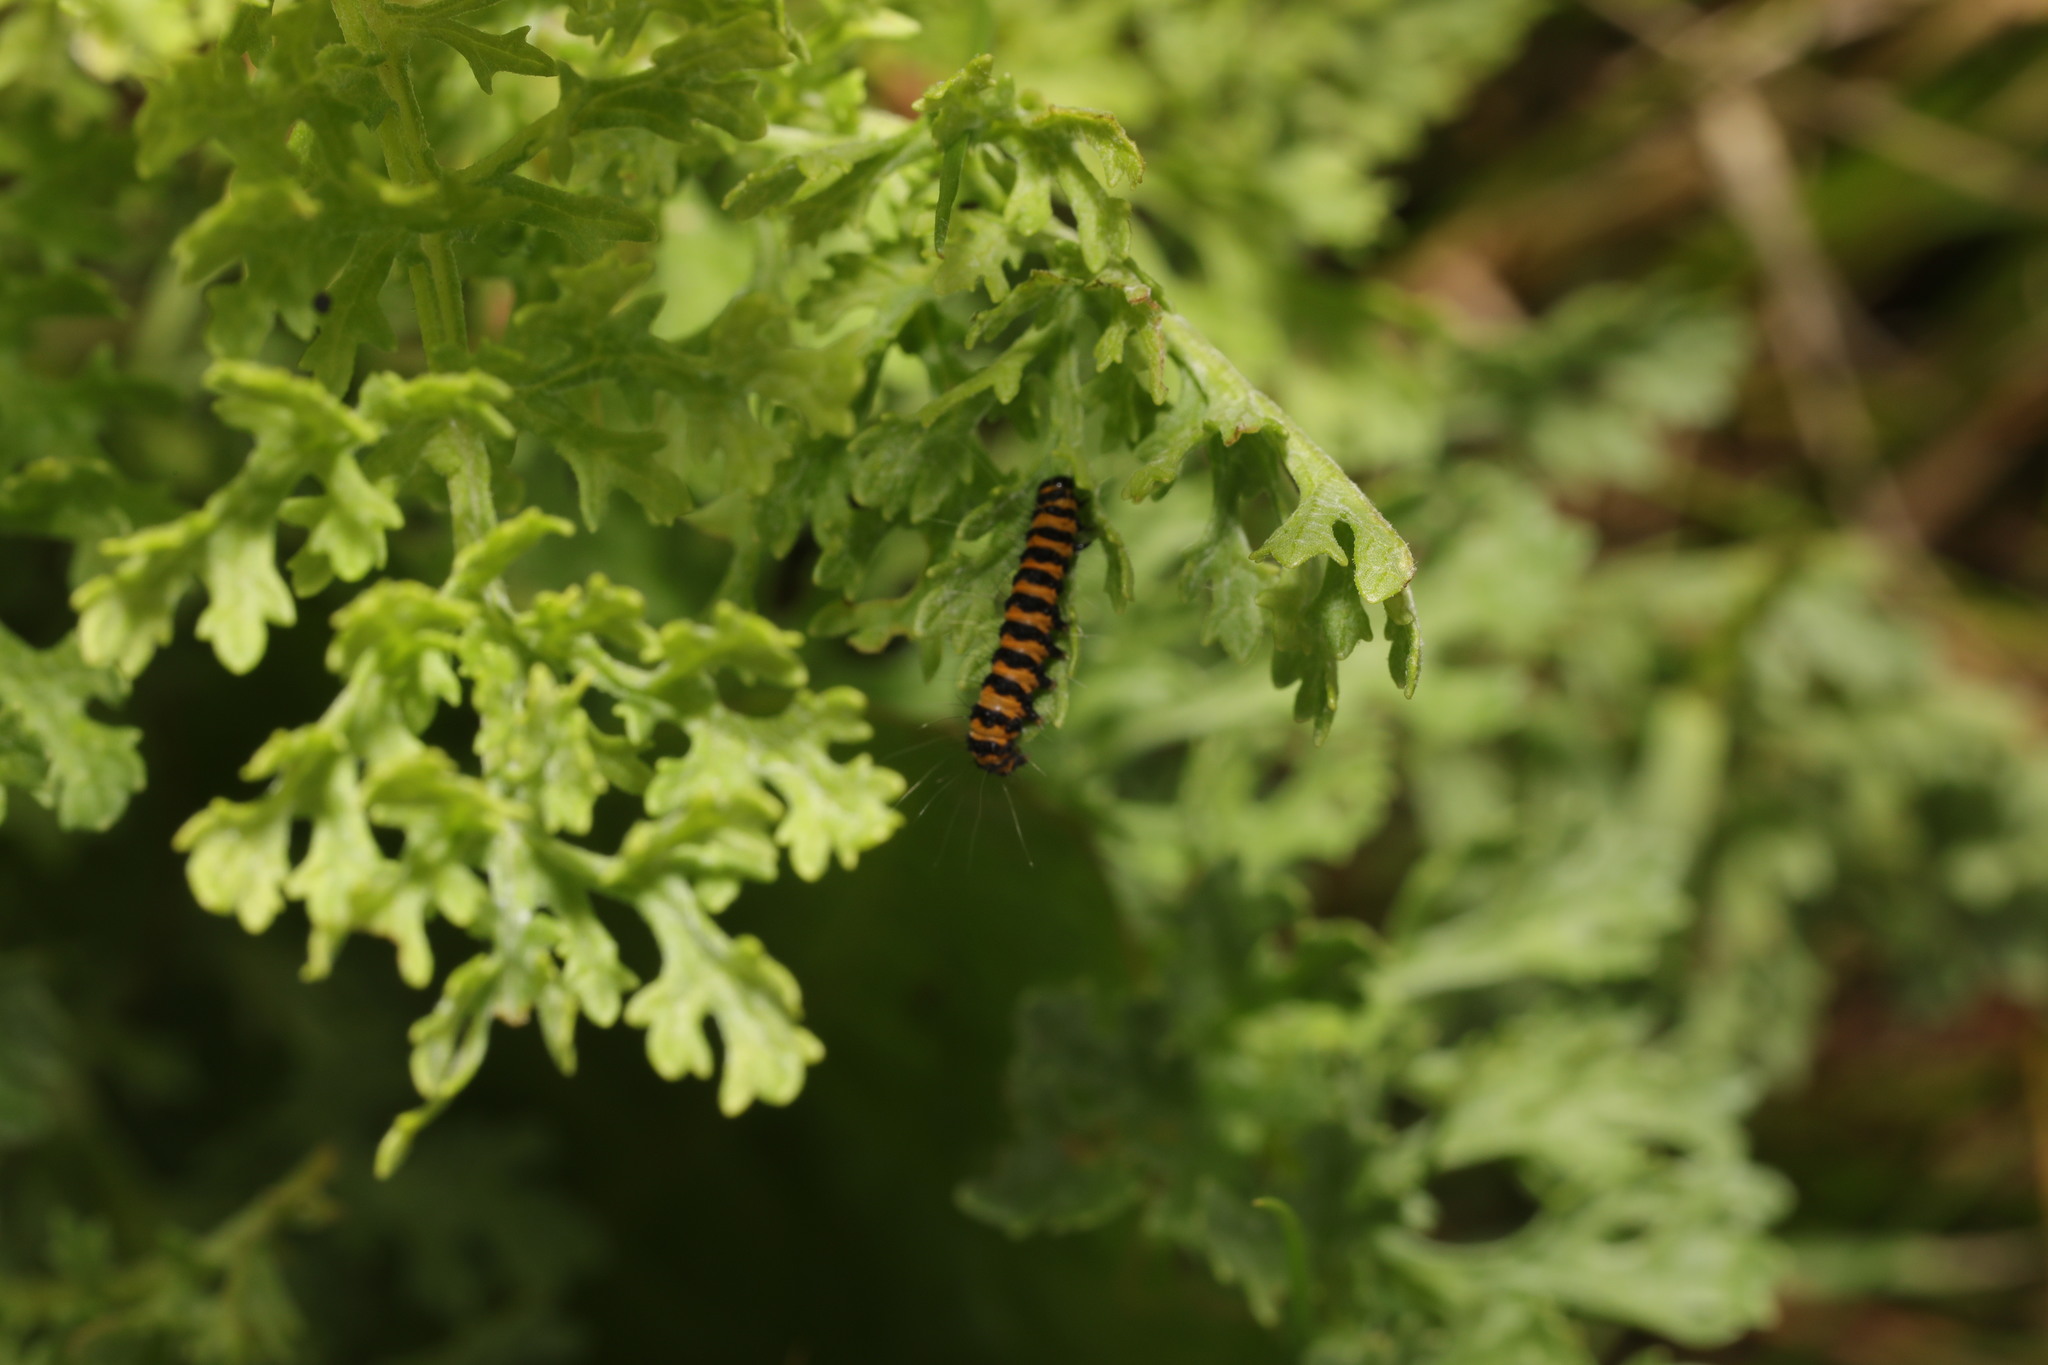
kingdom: Animalia
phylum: Arthropoda
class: Insecta
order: Lepidoptera
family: Erebidae
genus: Tyria
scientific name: Tyria jacobaeae
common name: Cinnabar
